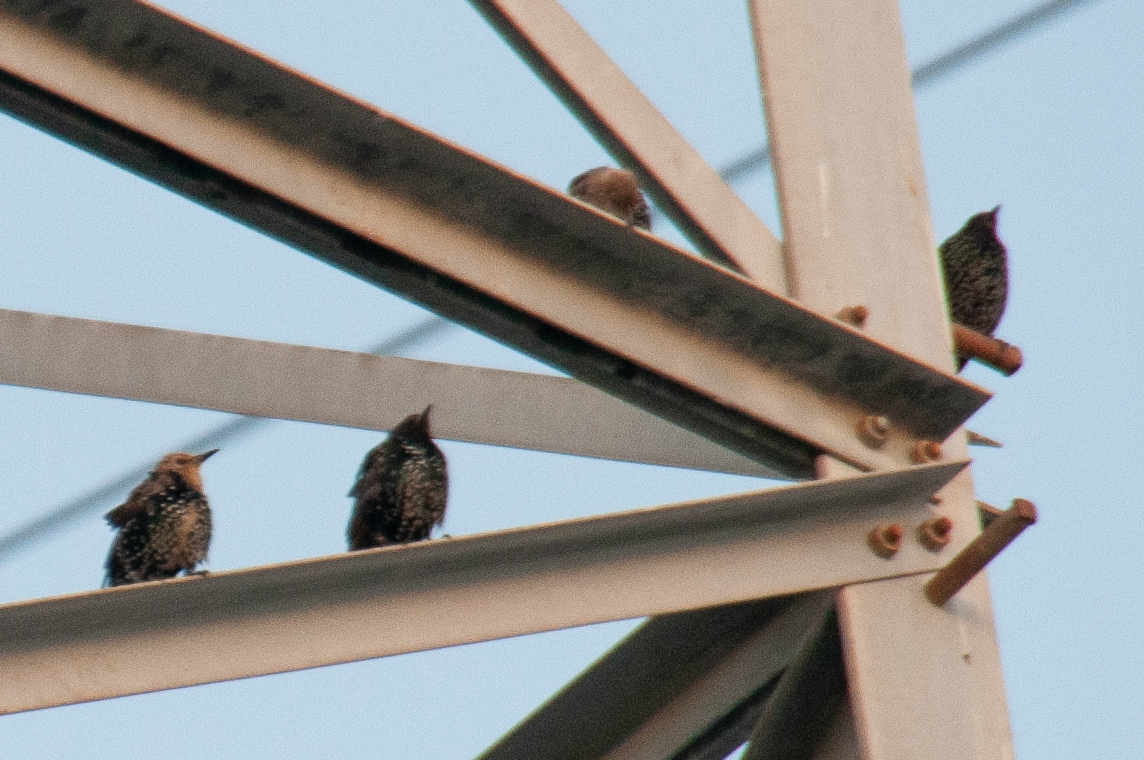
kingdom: Animalia
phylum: Chordata
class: Aves
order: Passeriformes
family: Sturnidae
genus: Sturnus
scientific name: Sturnus vulgaris
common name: Common starling
